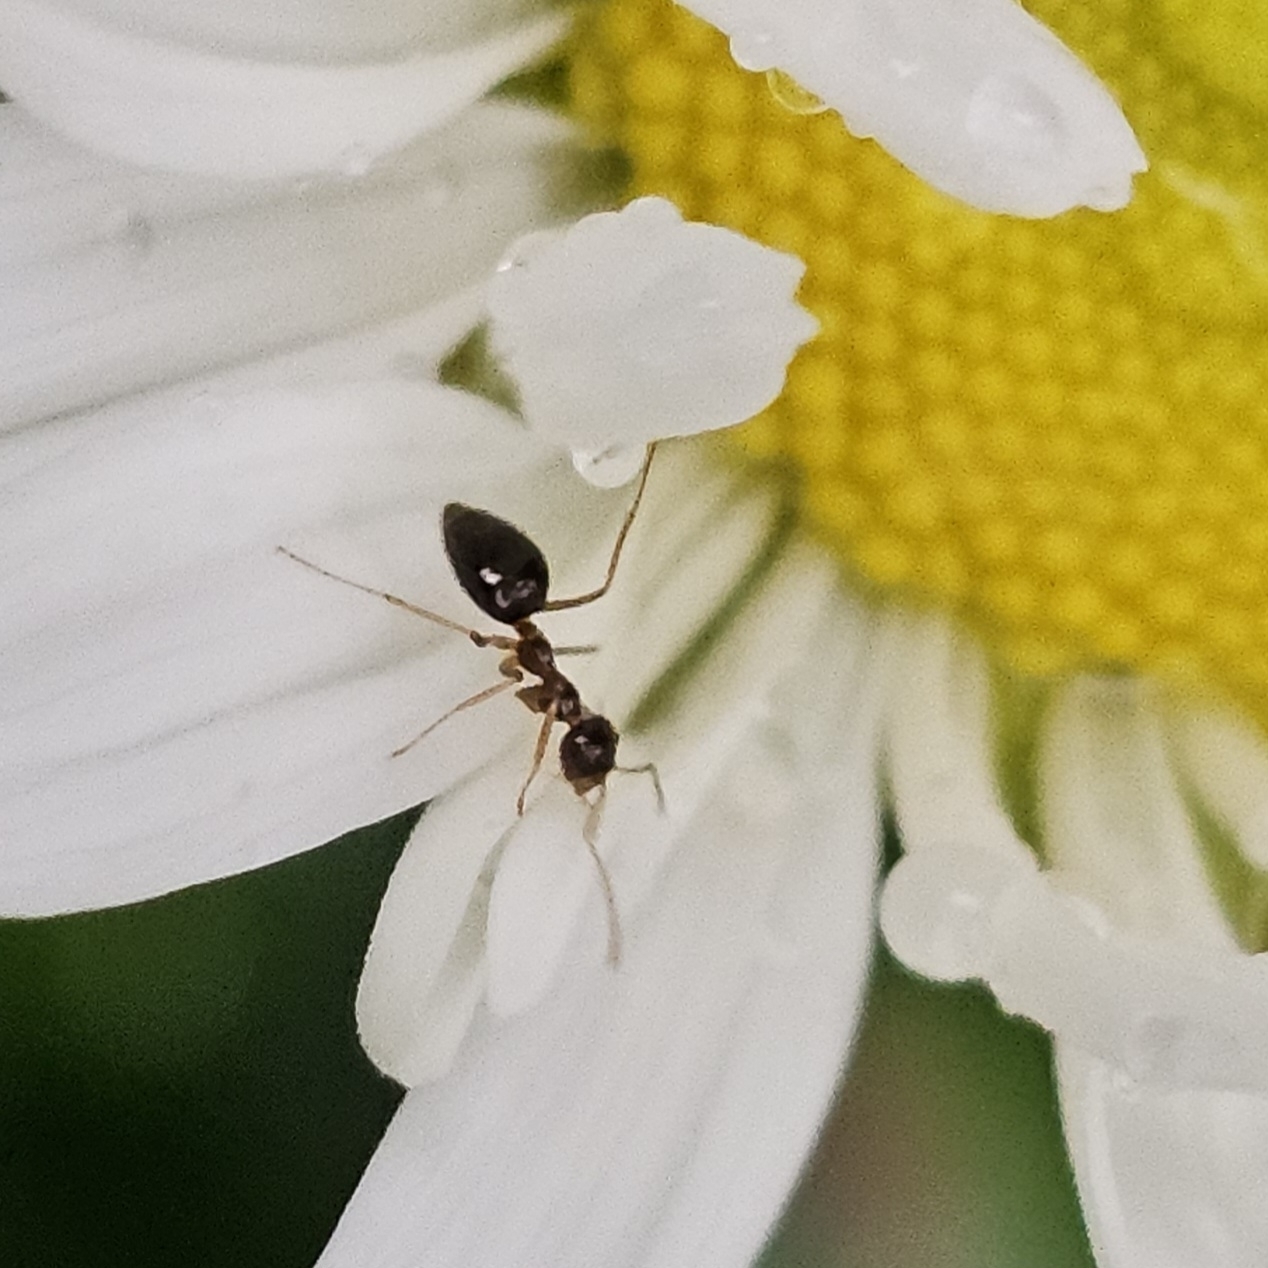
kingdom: Animalia
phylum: Arthropoda
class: Insecta
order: Hymenoptera
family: Formicidae
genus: Prenolepis
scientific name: Prenolepis imparis
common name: Small honey ant
